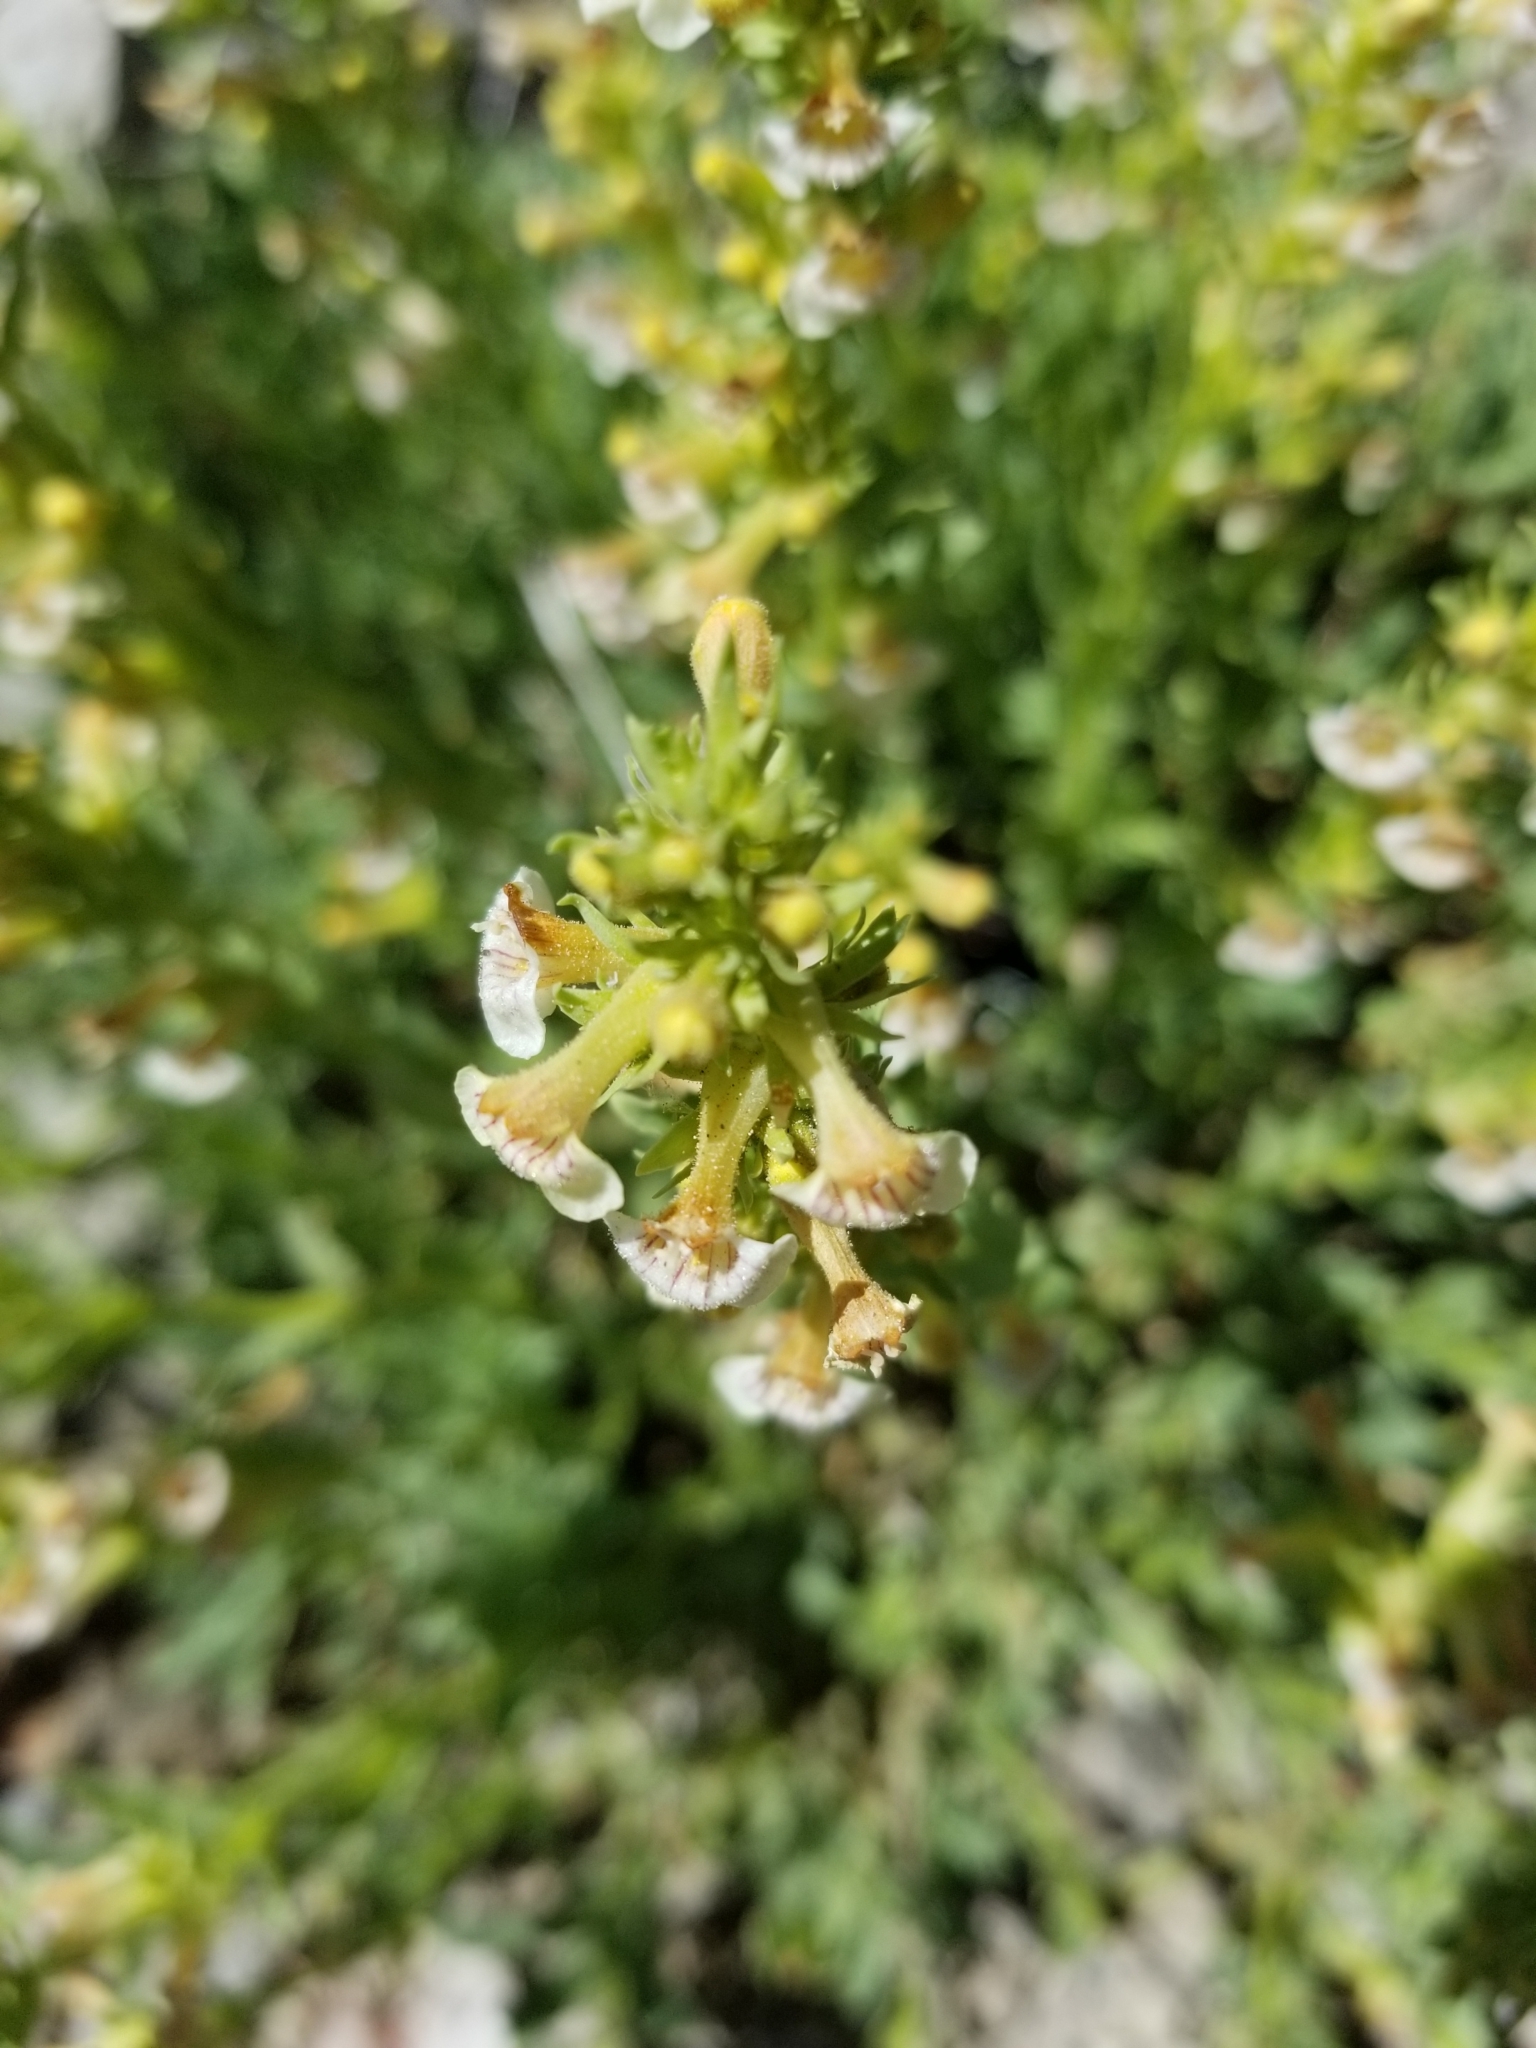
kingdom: Plantae
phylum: Tracheophyta
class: Magnoliopsida
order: Lamiales
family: Plantaginaceae
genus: Penstemon
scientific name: Penstemon deustus
